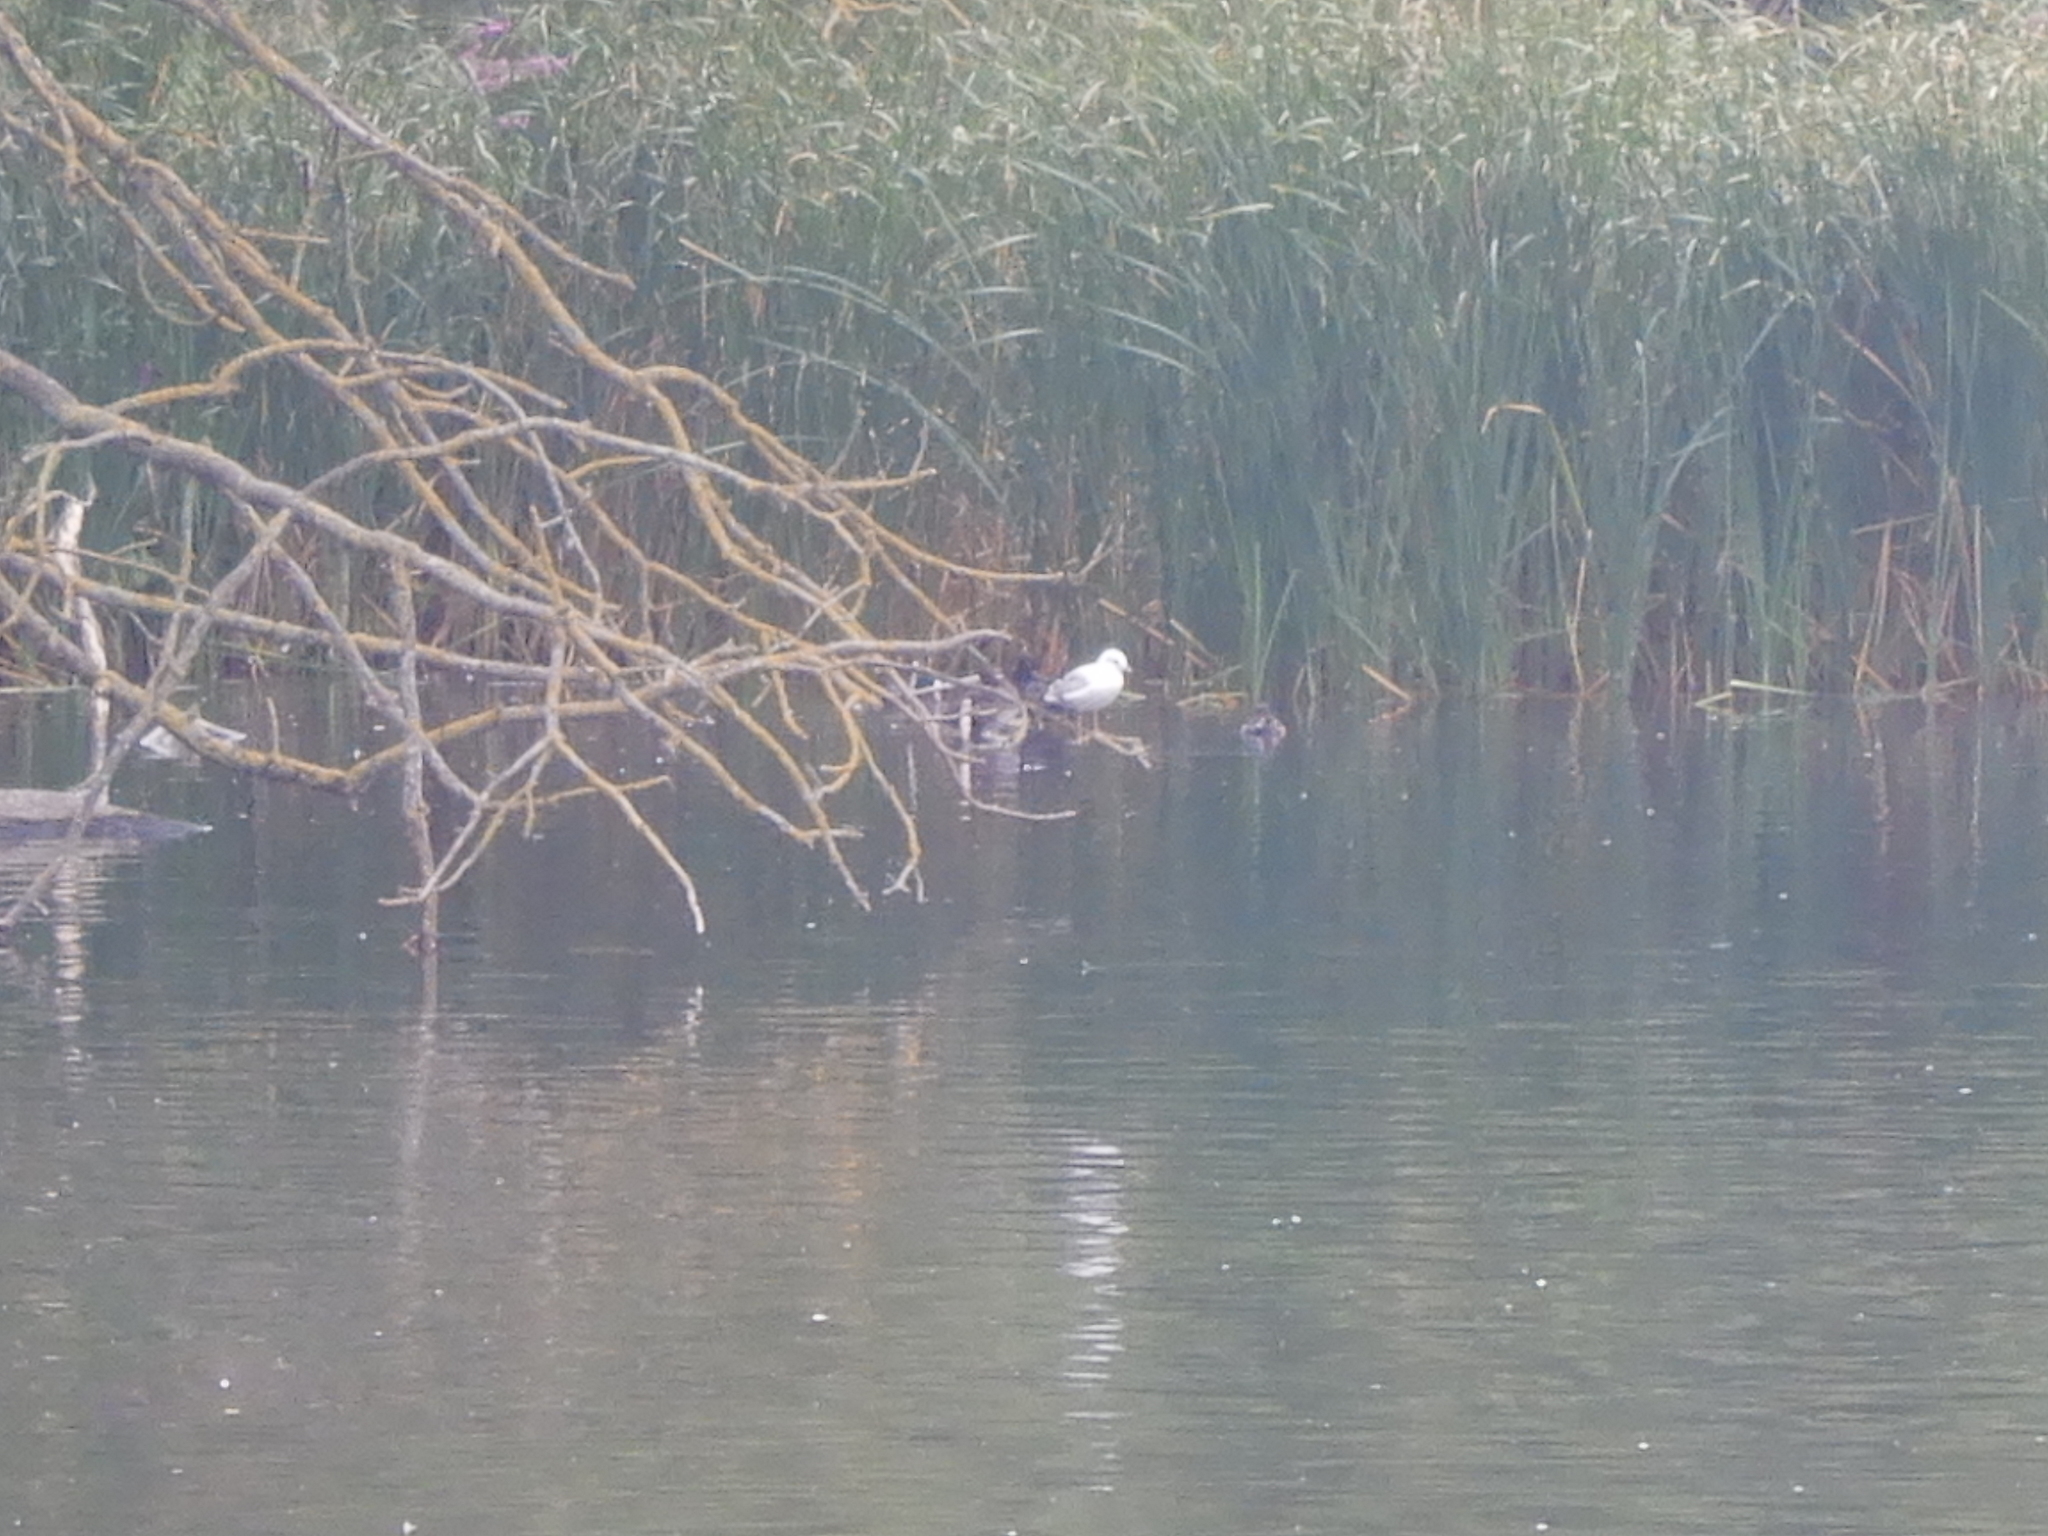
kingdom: Animalia
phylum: Chordata
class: Aves
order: Charadriiformes
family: Laridae
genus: Chroicocephalus
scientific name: Chroicocephalus ridibundus
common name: Black-headed gull
